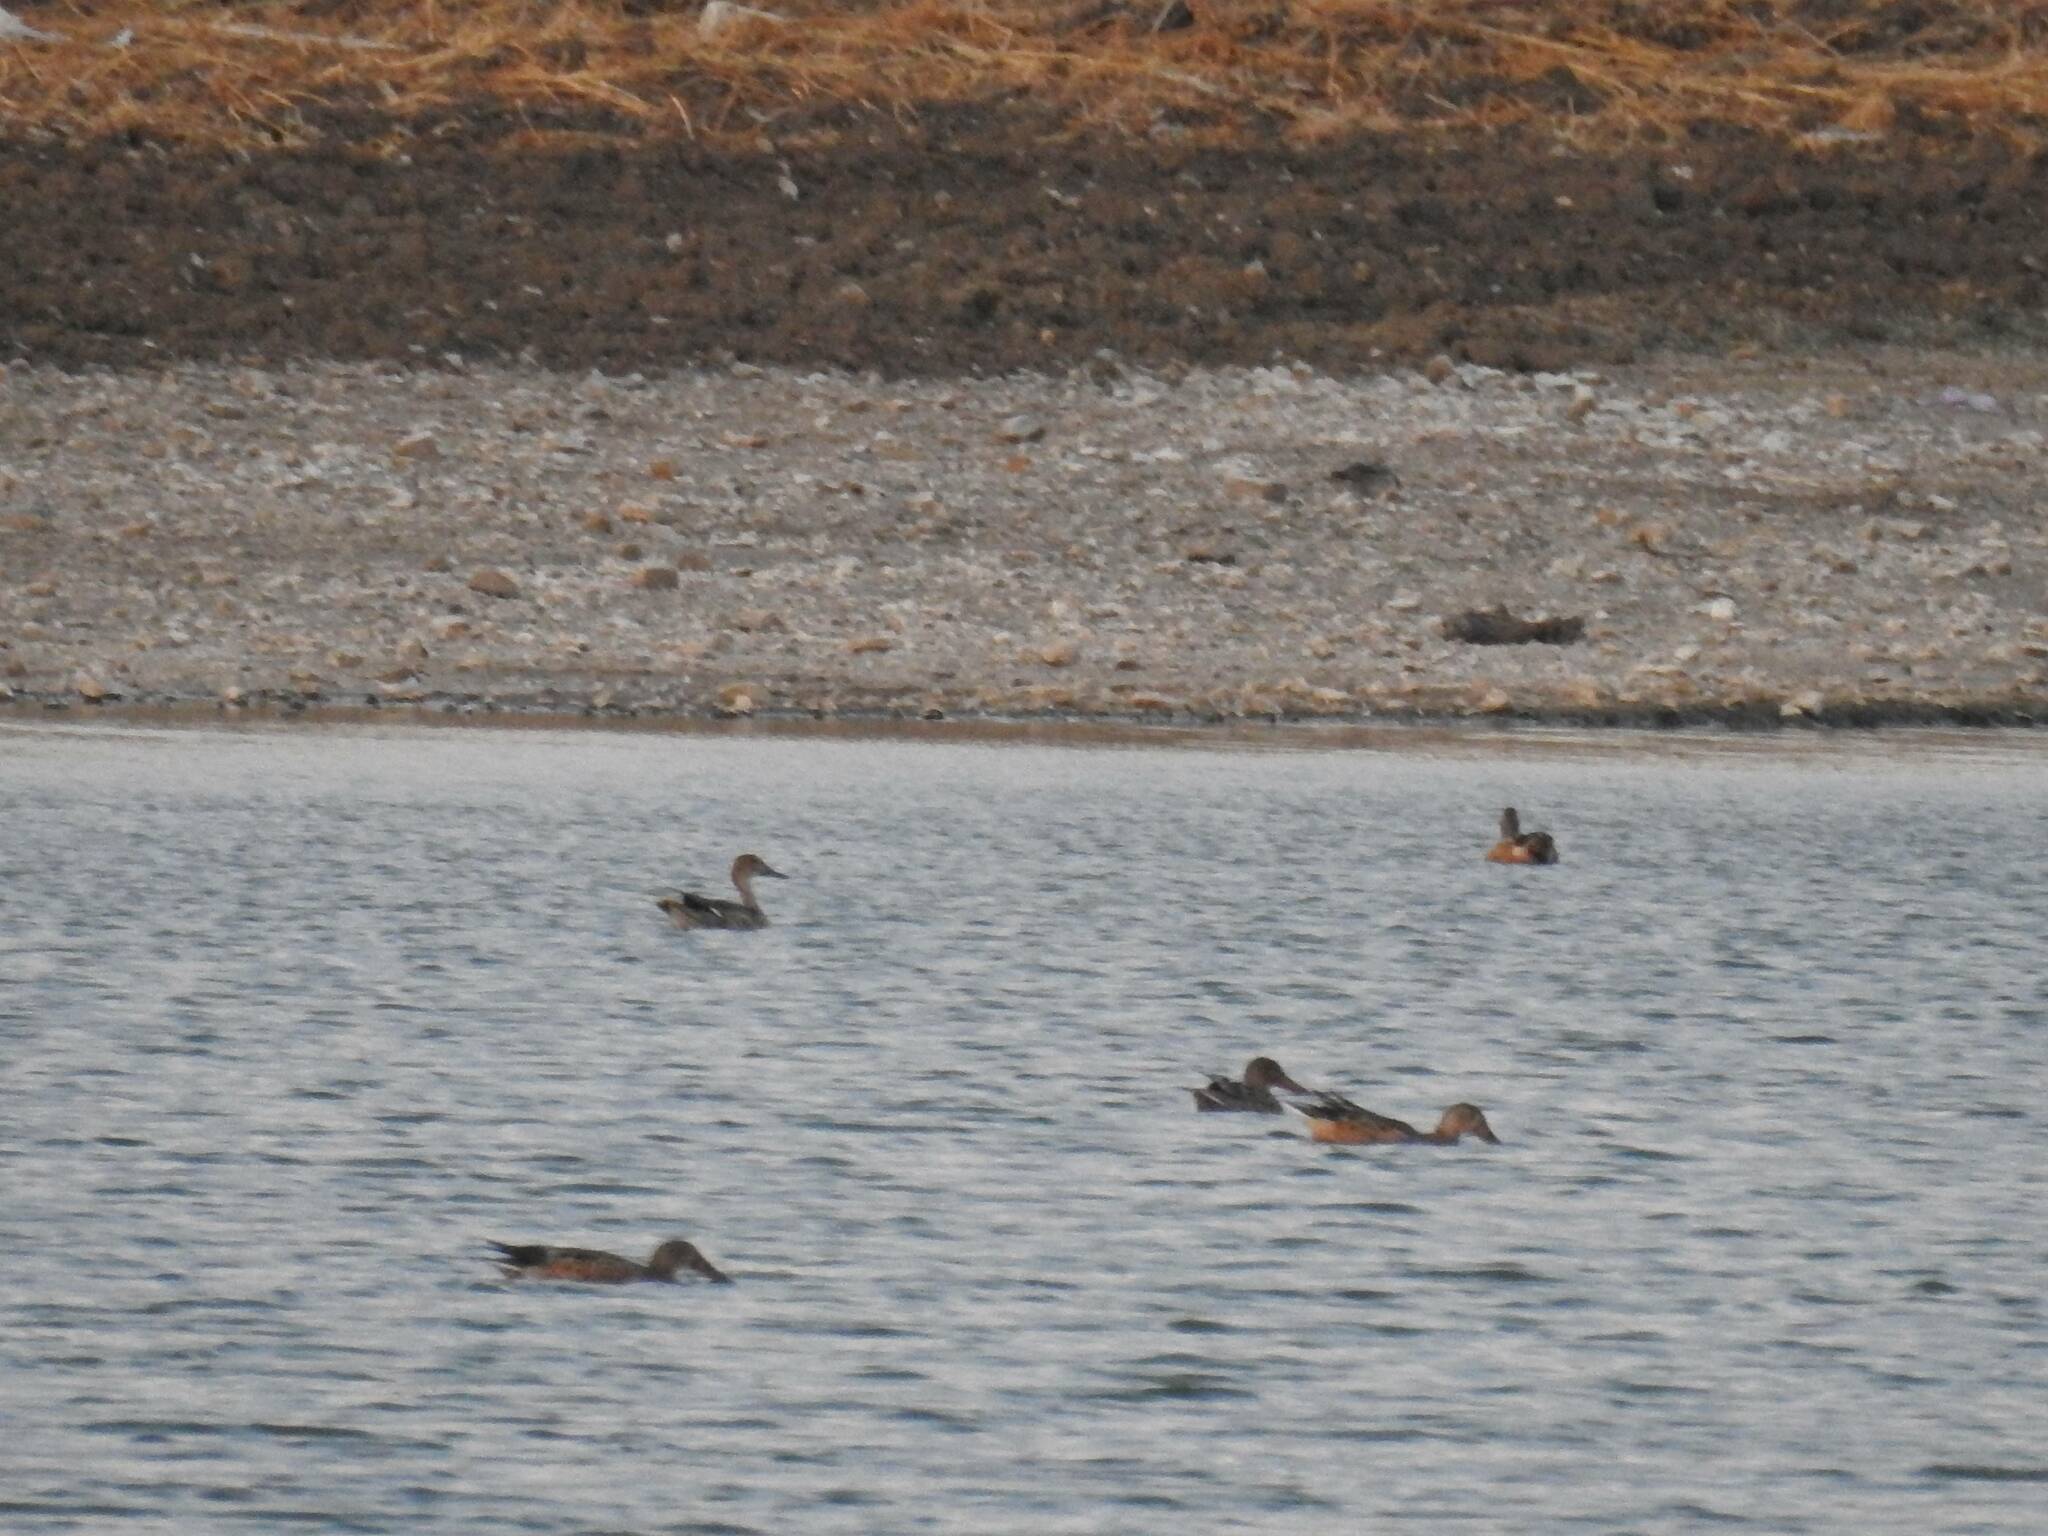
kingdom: Animalia
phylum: Chordata
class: Aves
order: Anseriformes
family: Anatidae
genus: Spatula
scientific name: Spatula clypeata
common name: Northern shoveler
